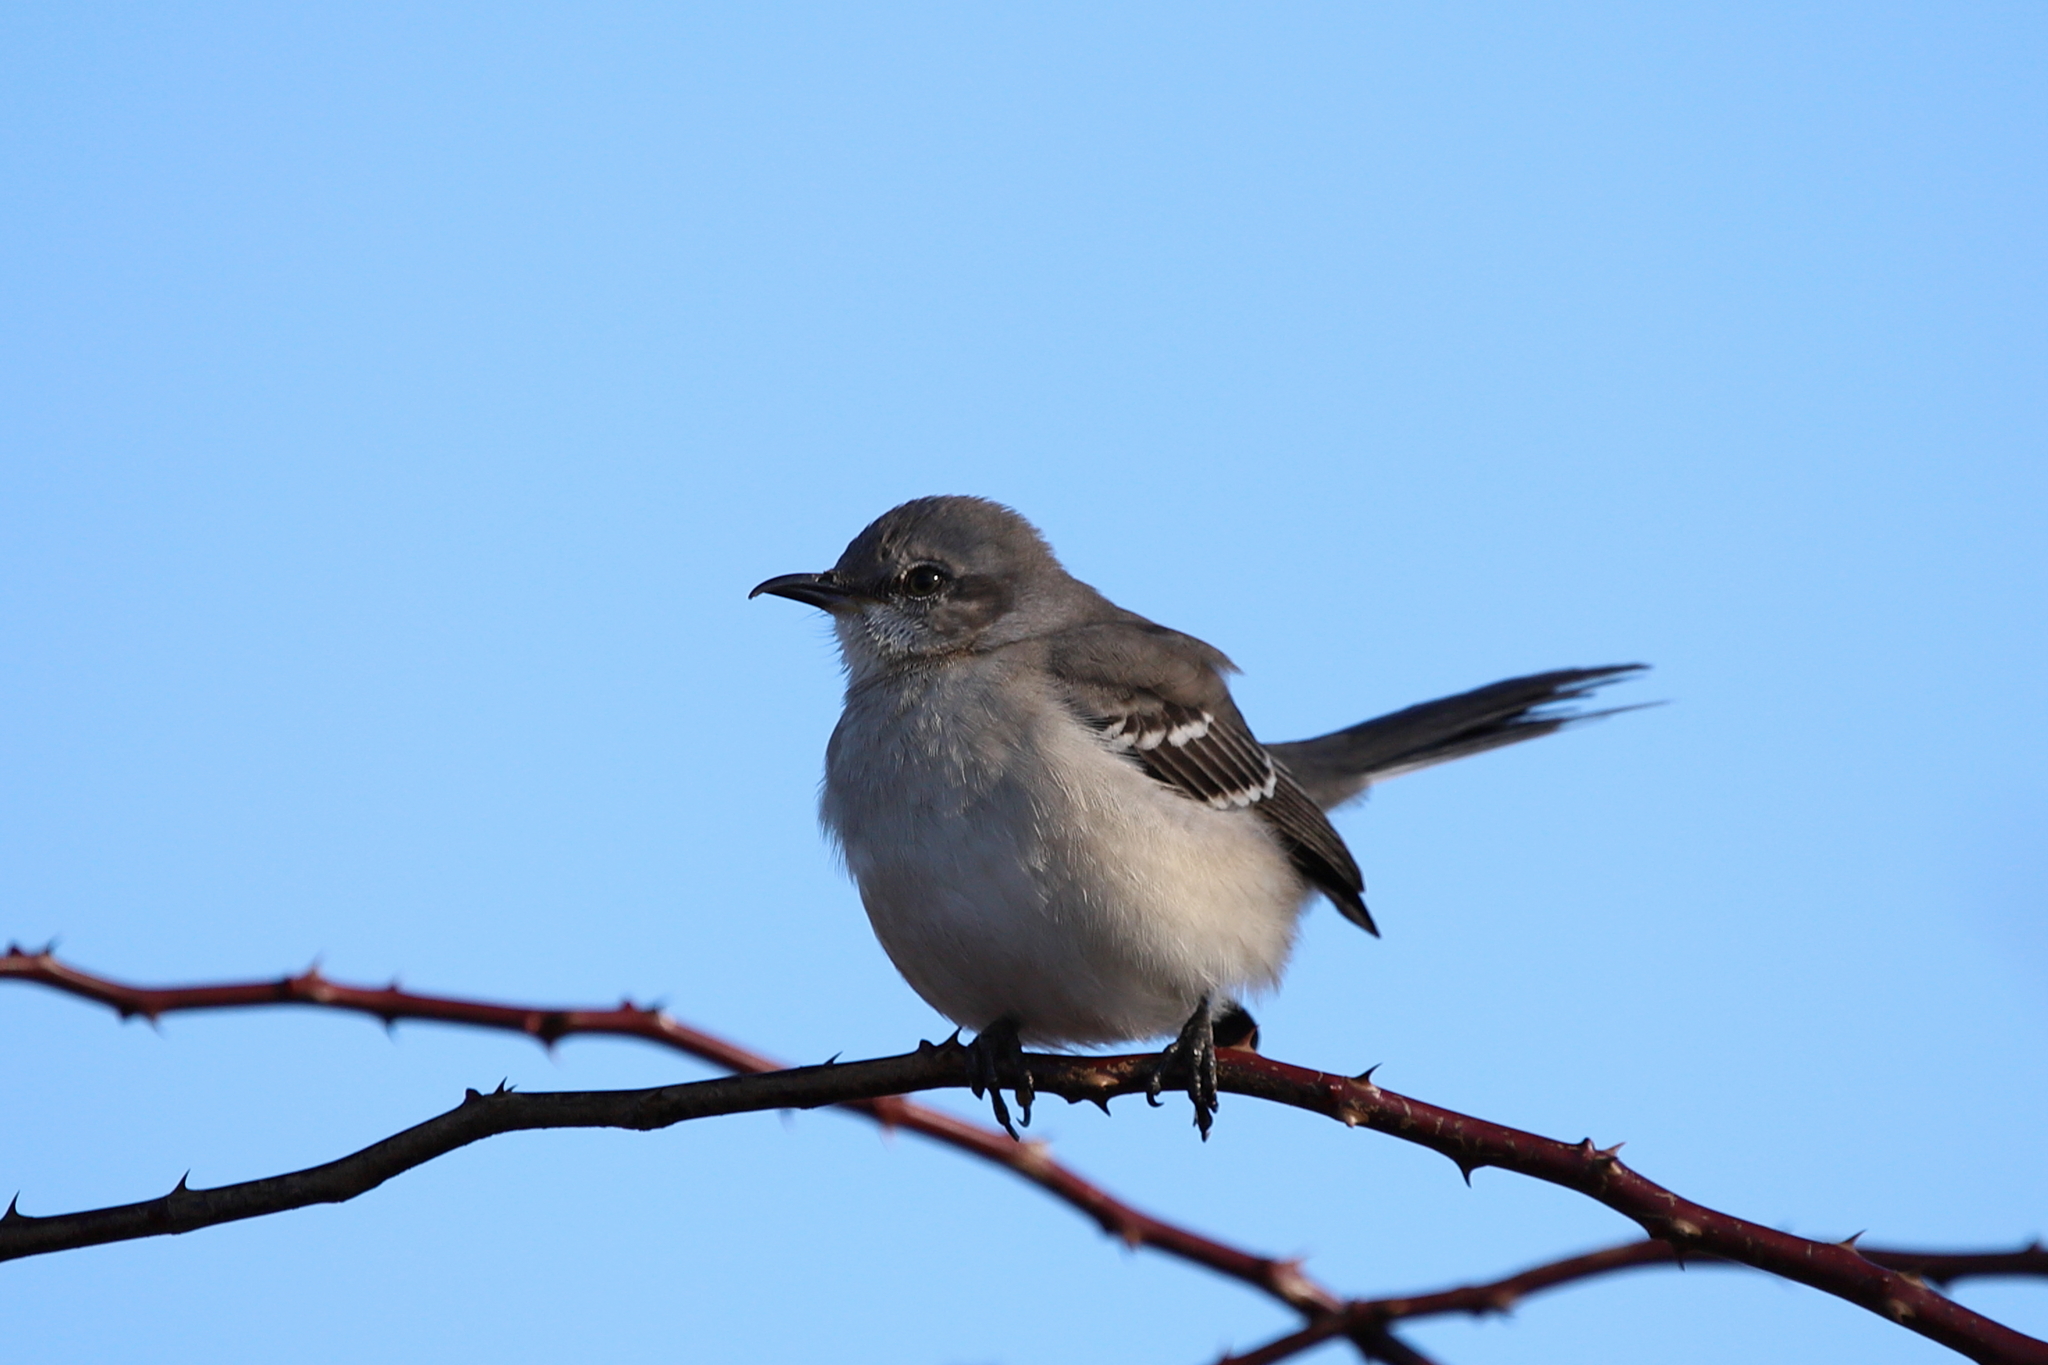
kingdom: Animalia
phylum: Chordata
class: Aves
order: Passeriformes
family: Mimidae
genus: Mimus
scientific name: Mimus polyglottos
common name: Northern mockingbird
